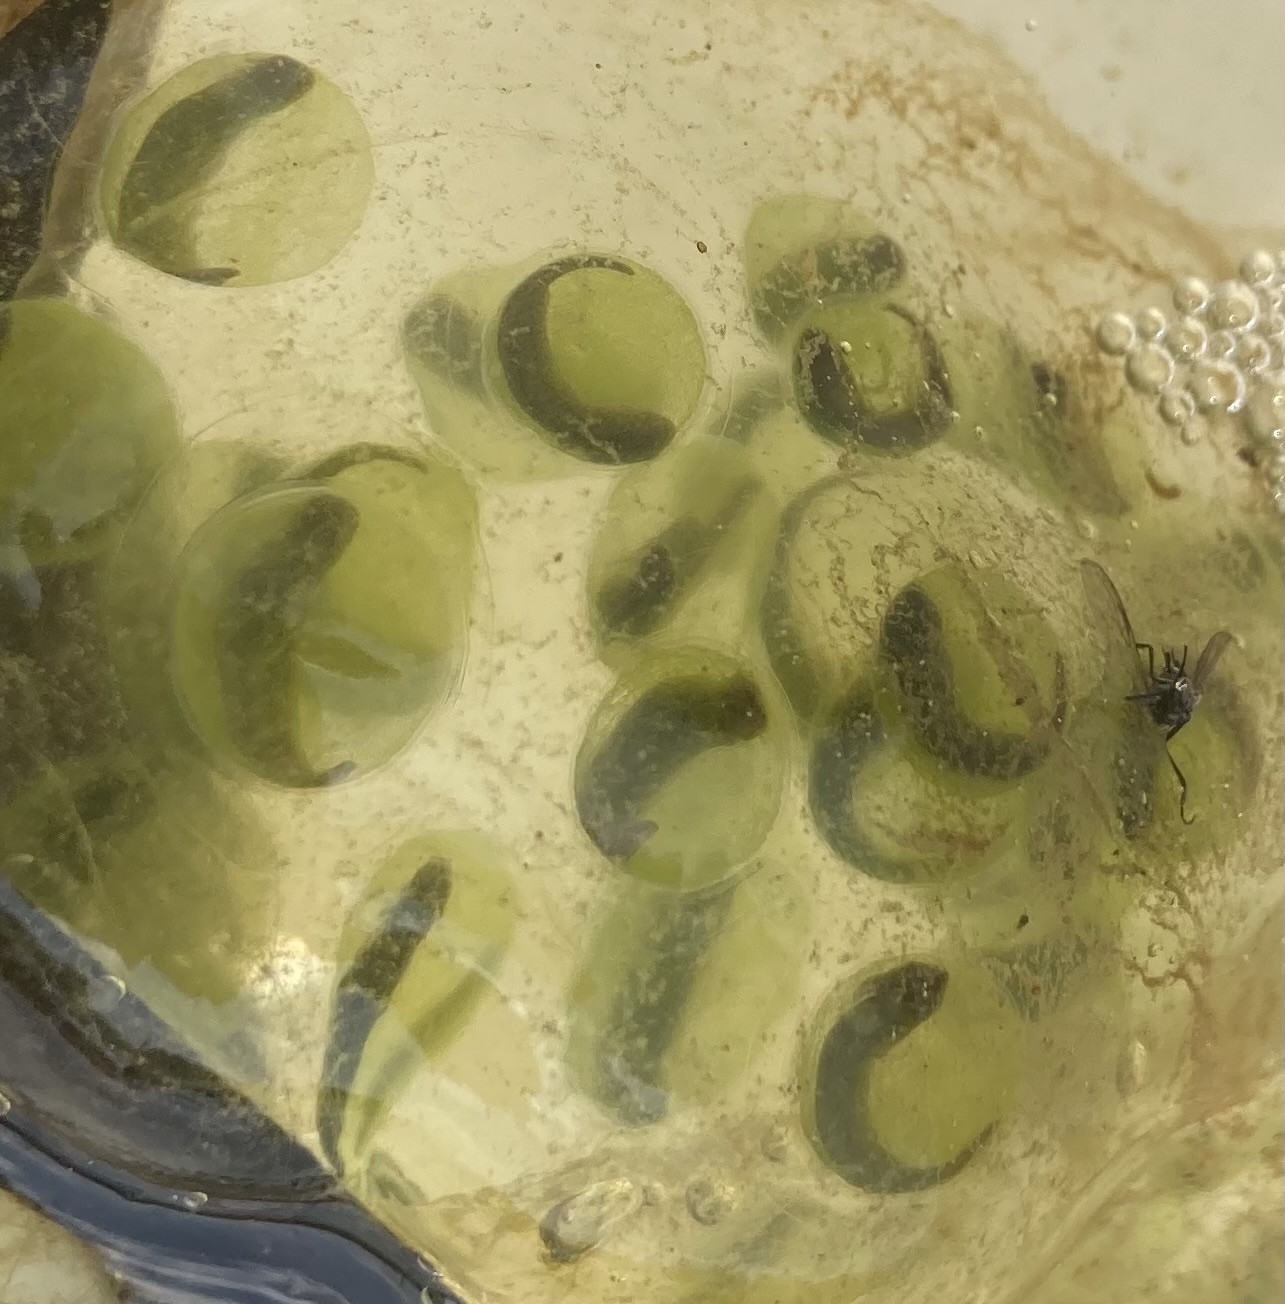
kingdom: Animalia
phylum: Chordata
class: Amphibia
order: Caudata
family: Ambystomatidae
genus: Ambystoma
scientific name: Ambystoma maculatum
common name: Spotted salamander
